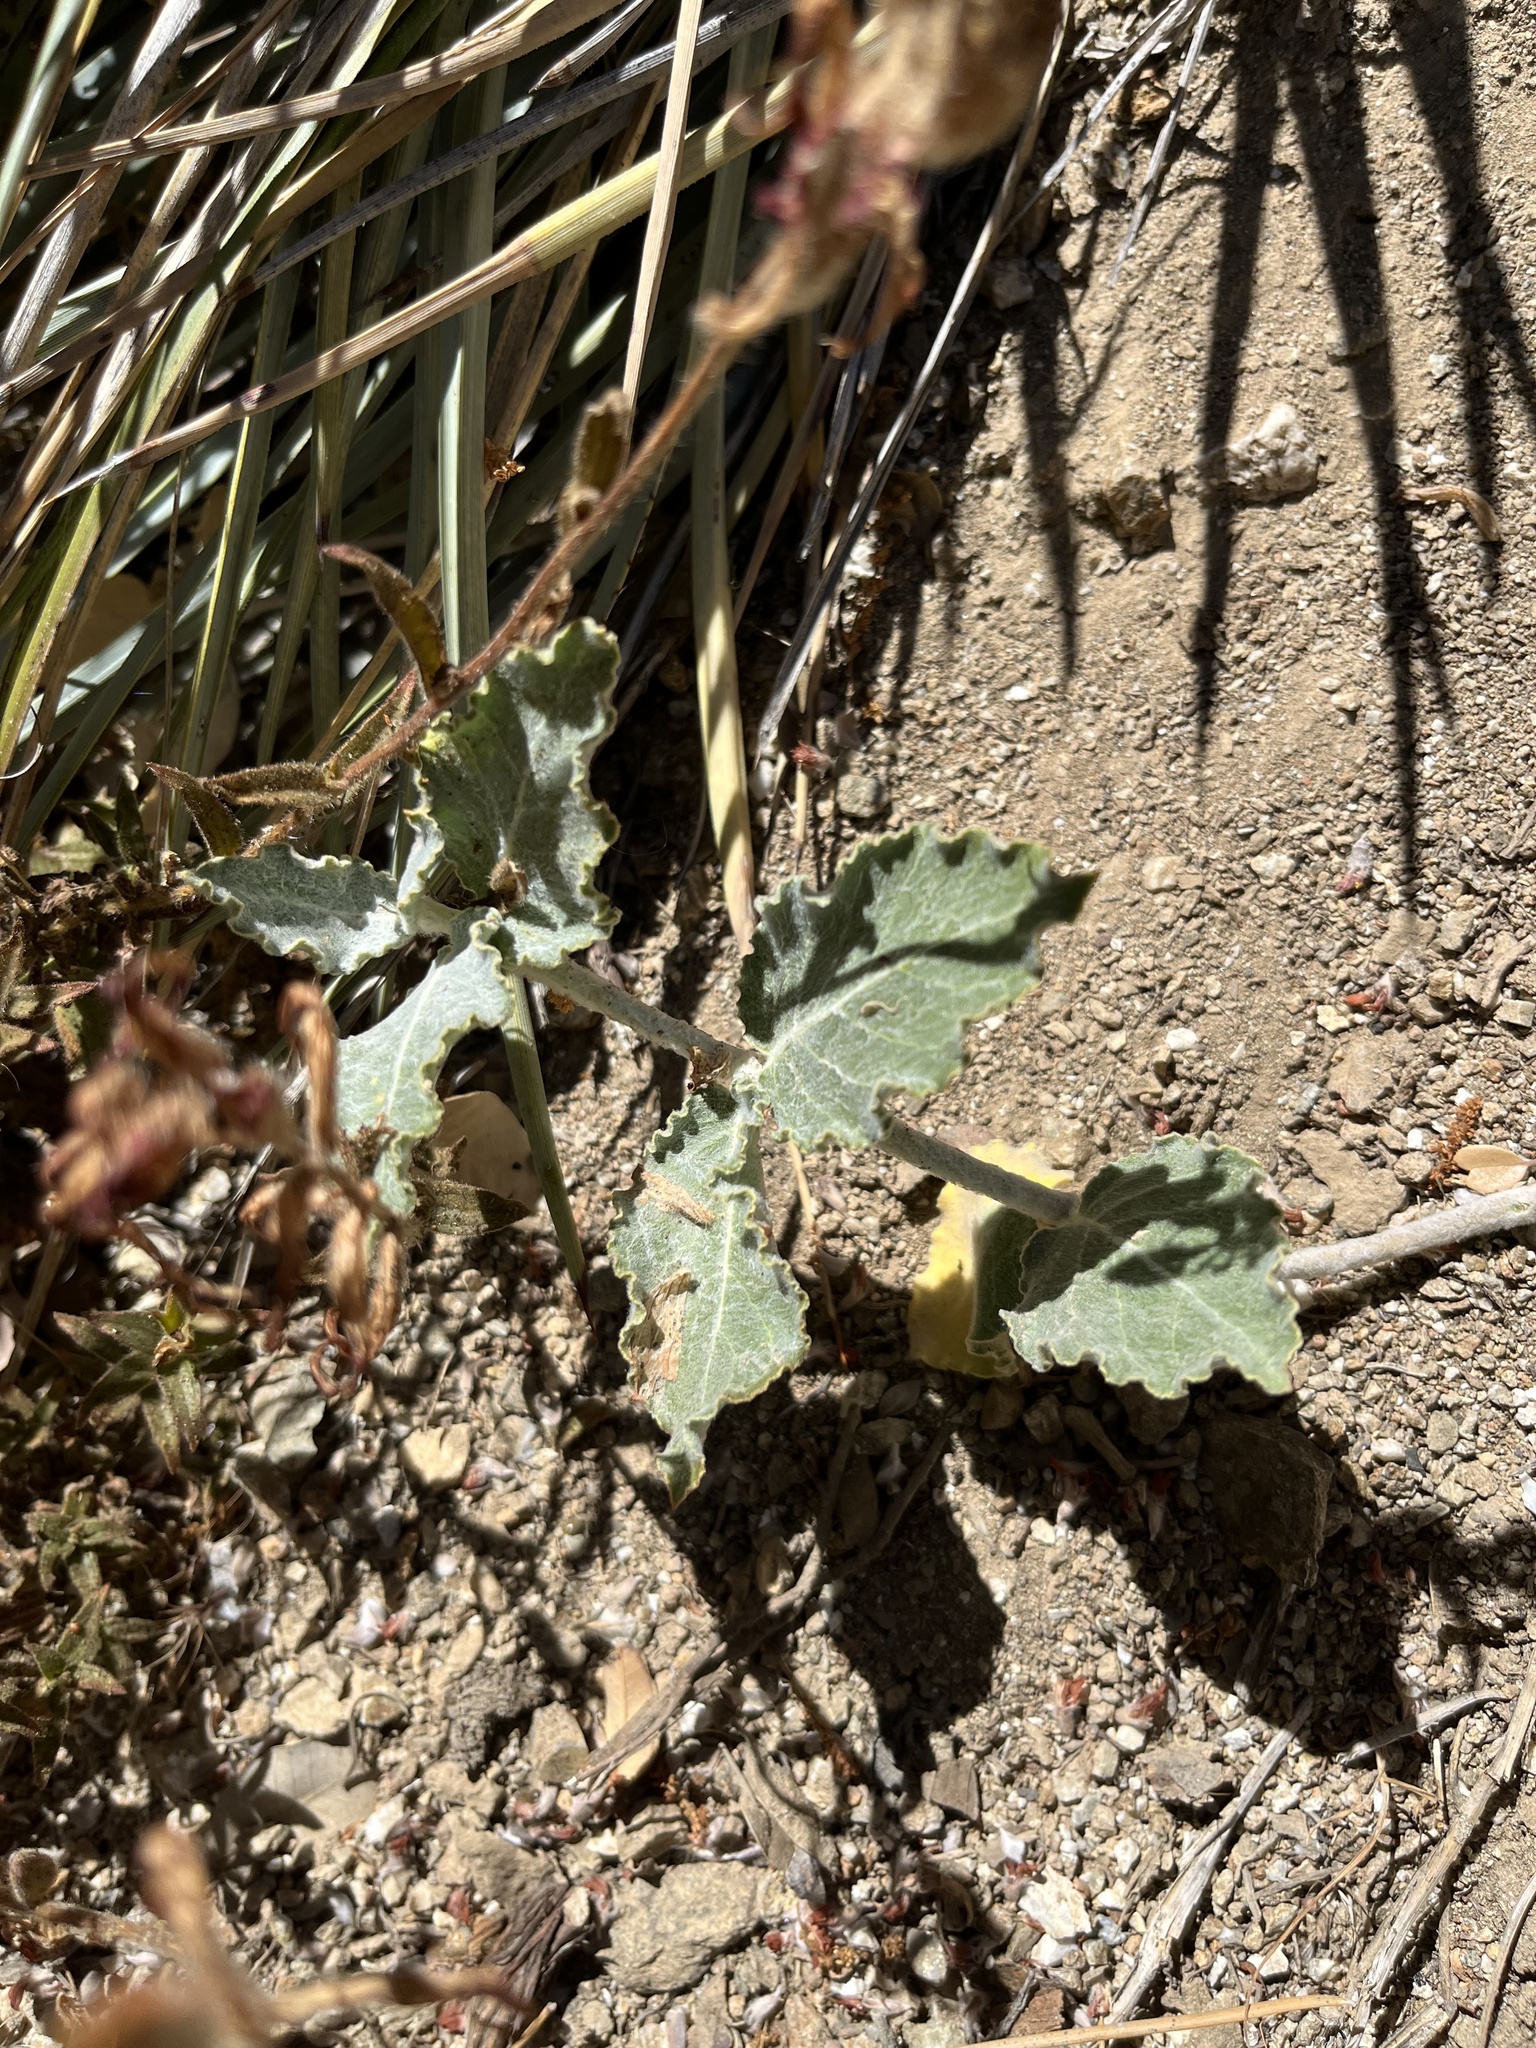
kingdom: Plantae
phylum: Tracheophyta
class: Magnoliopsida
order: Gentianales
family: Apocynaceae
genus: Asclepias
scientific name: Asclepias californica
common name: California milkweed
